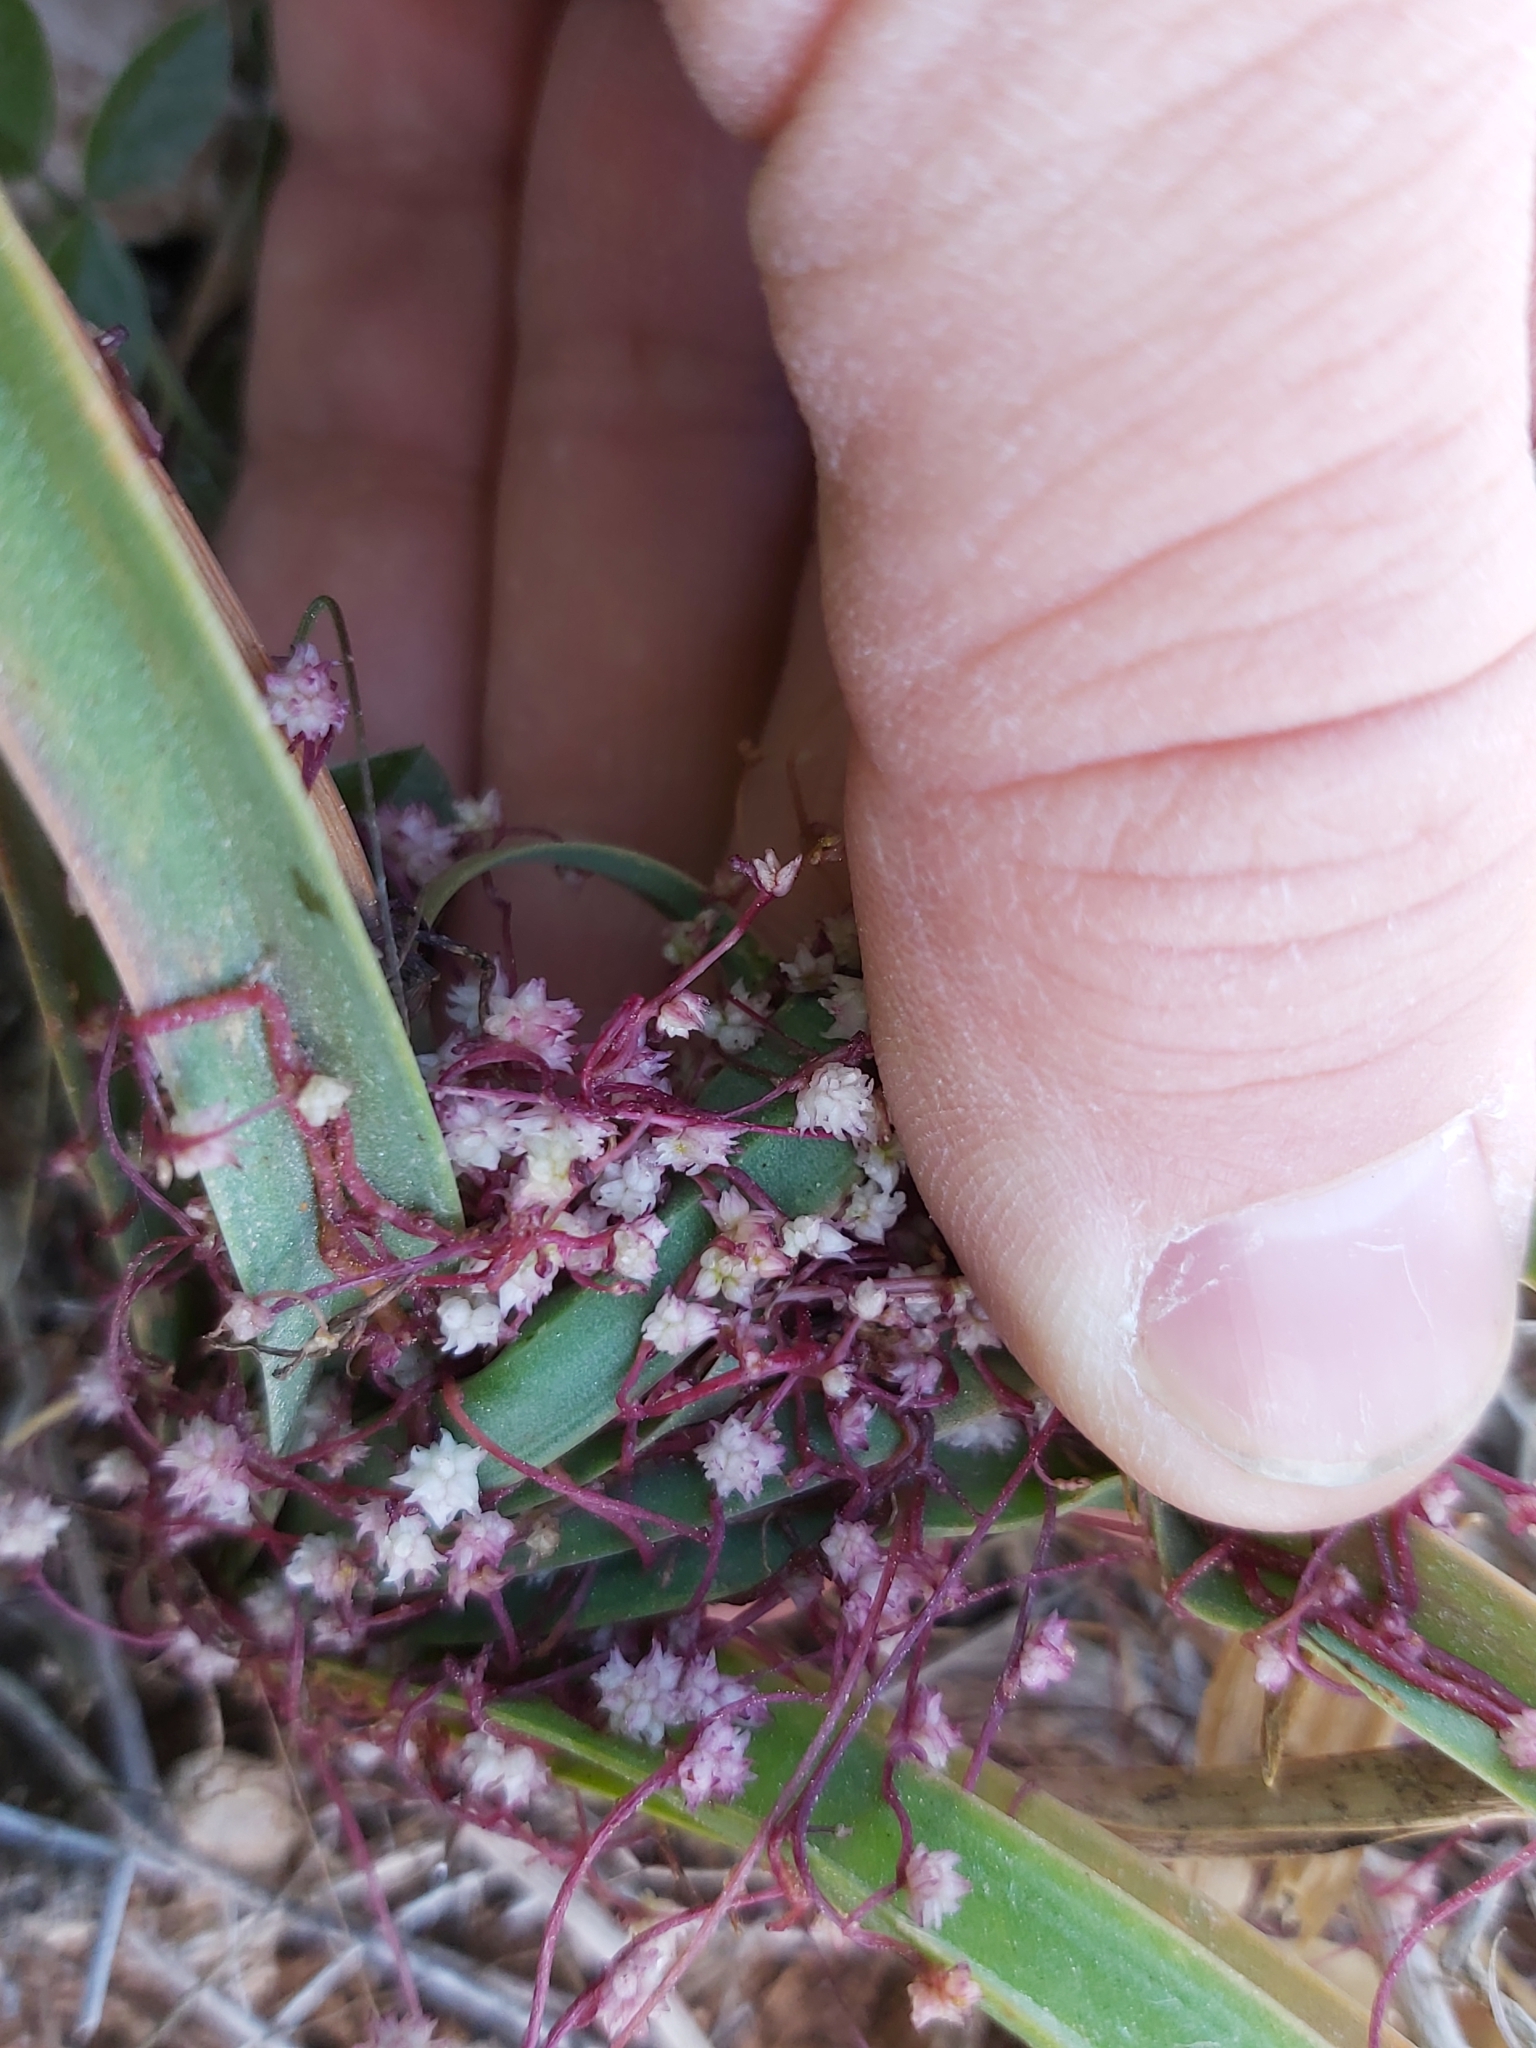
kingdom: Plantae
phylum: Tracheophyta
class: Magnoliopsida
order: Solanales
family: Convolvulaceae
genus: Cuscuta
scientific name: Cuscuta epithymum
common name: Clover dodder
